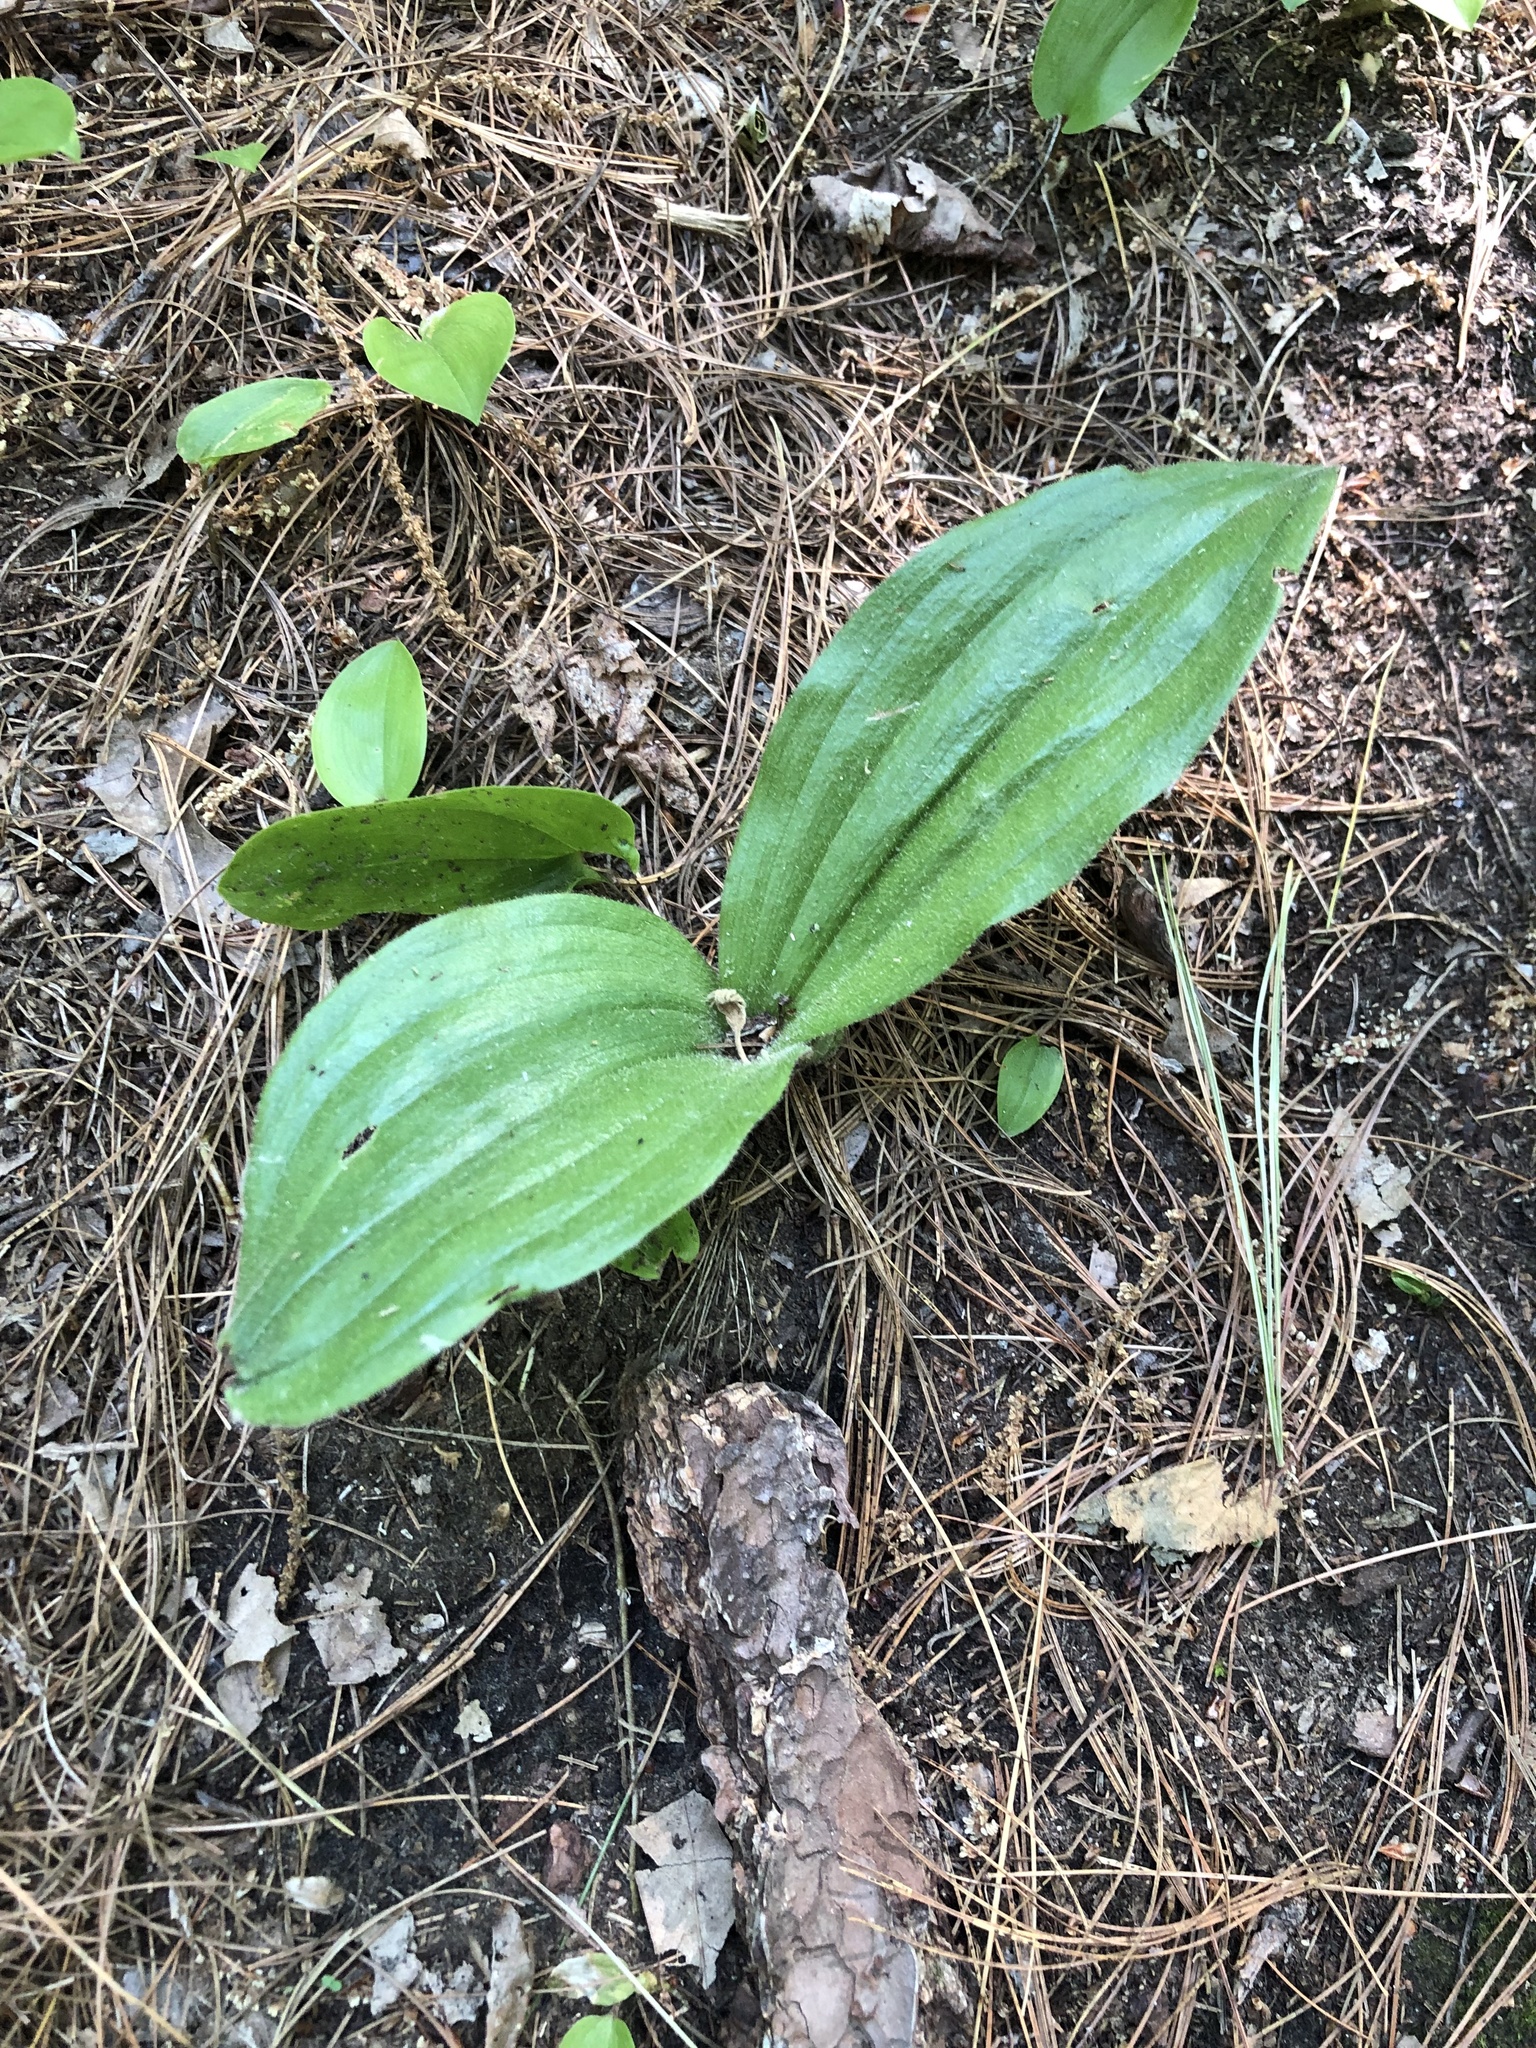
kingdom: Plantae
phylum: Tracheophyta
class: Liliopsida
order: Asparagales
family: Orchidaceae
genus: Cypripedium
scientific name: Cypripedium acaule
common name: Pink lady's-slipper
